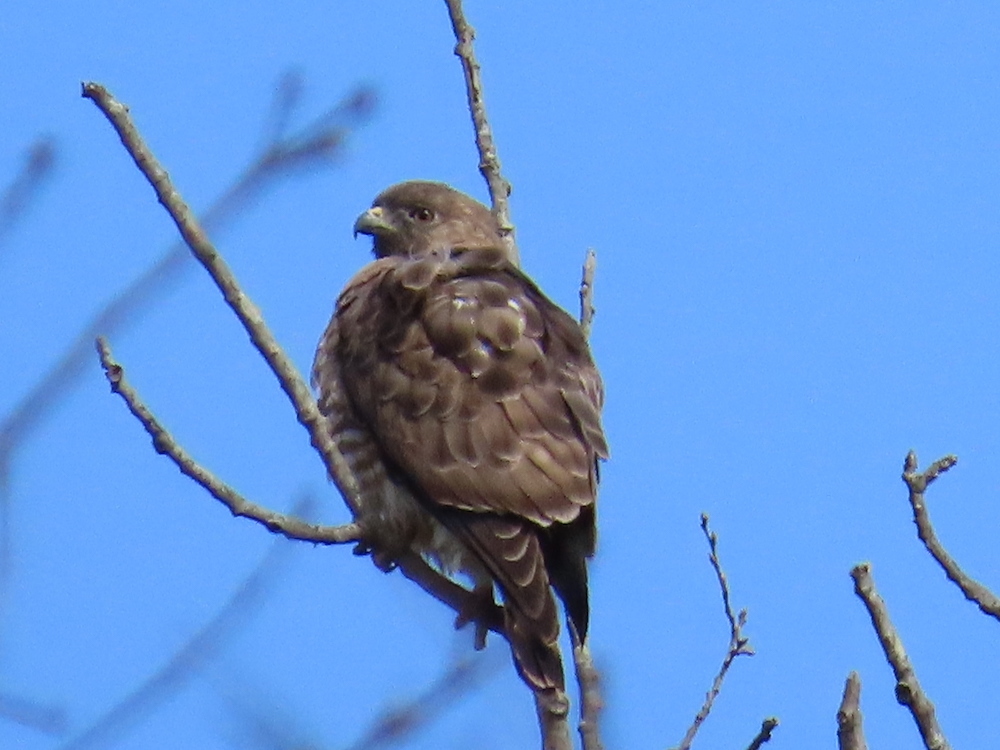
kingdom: Animalia
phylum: Chordata
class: Aves
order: Accipitriformes
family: Accipitridae
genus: Buteo
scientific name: Buteo platypterus
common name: Broad-winged hawk
